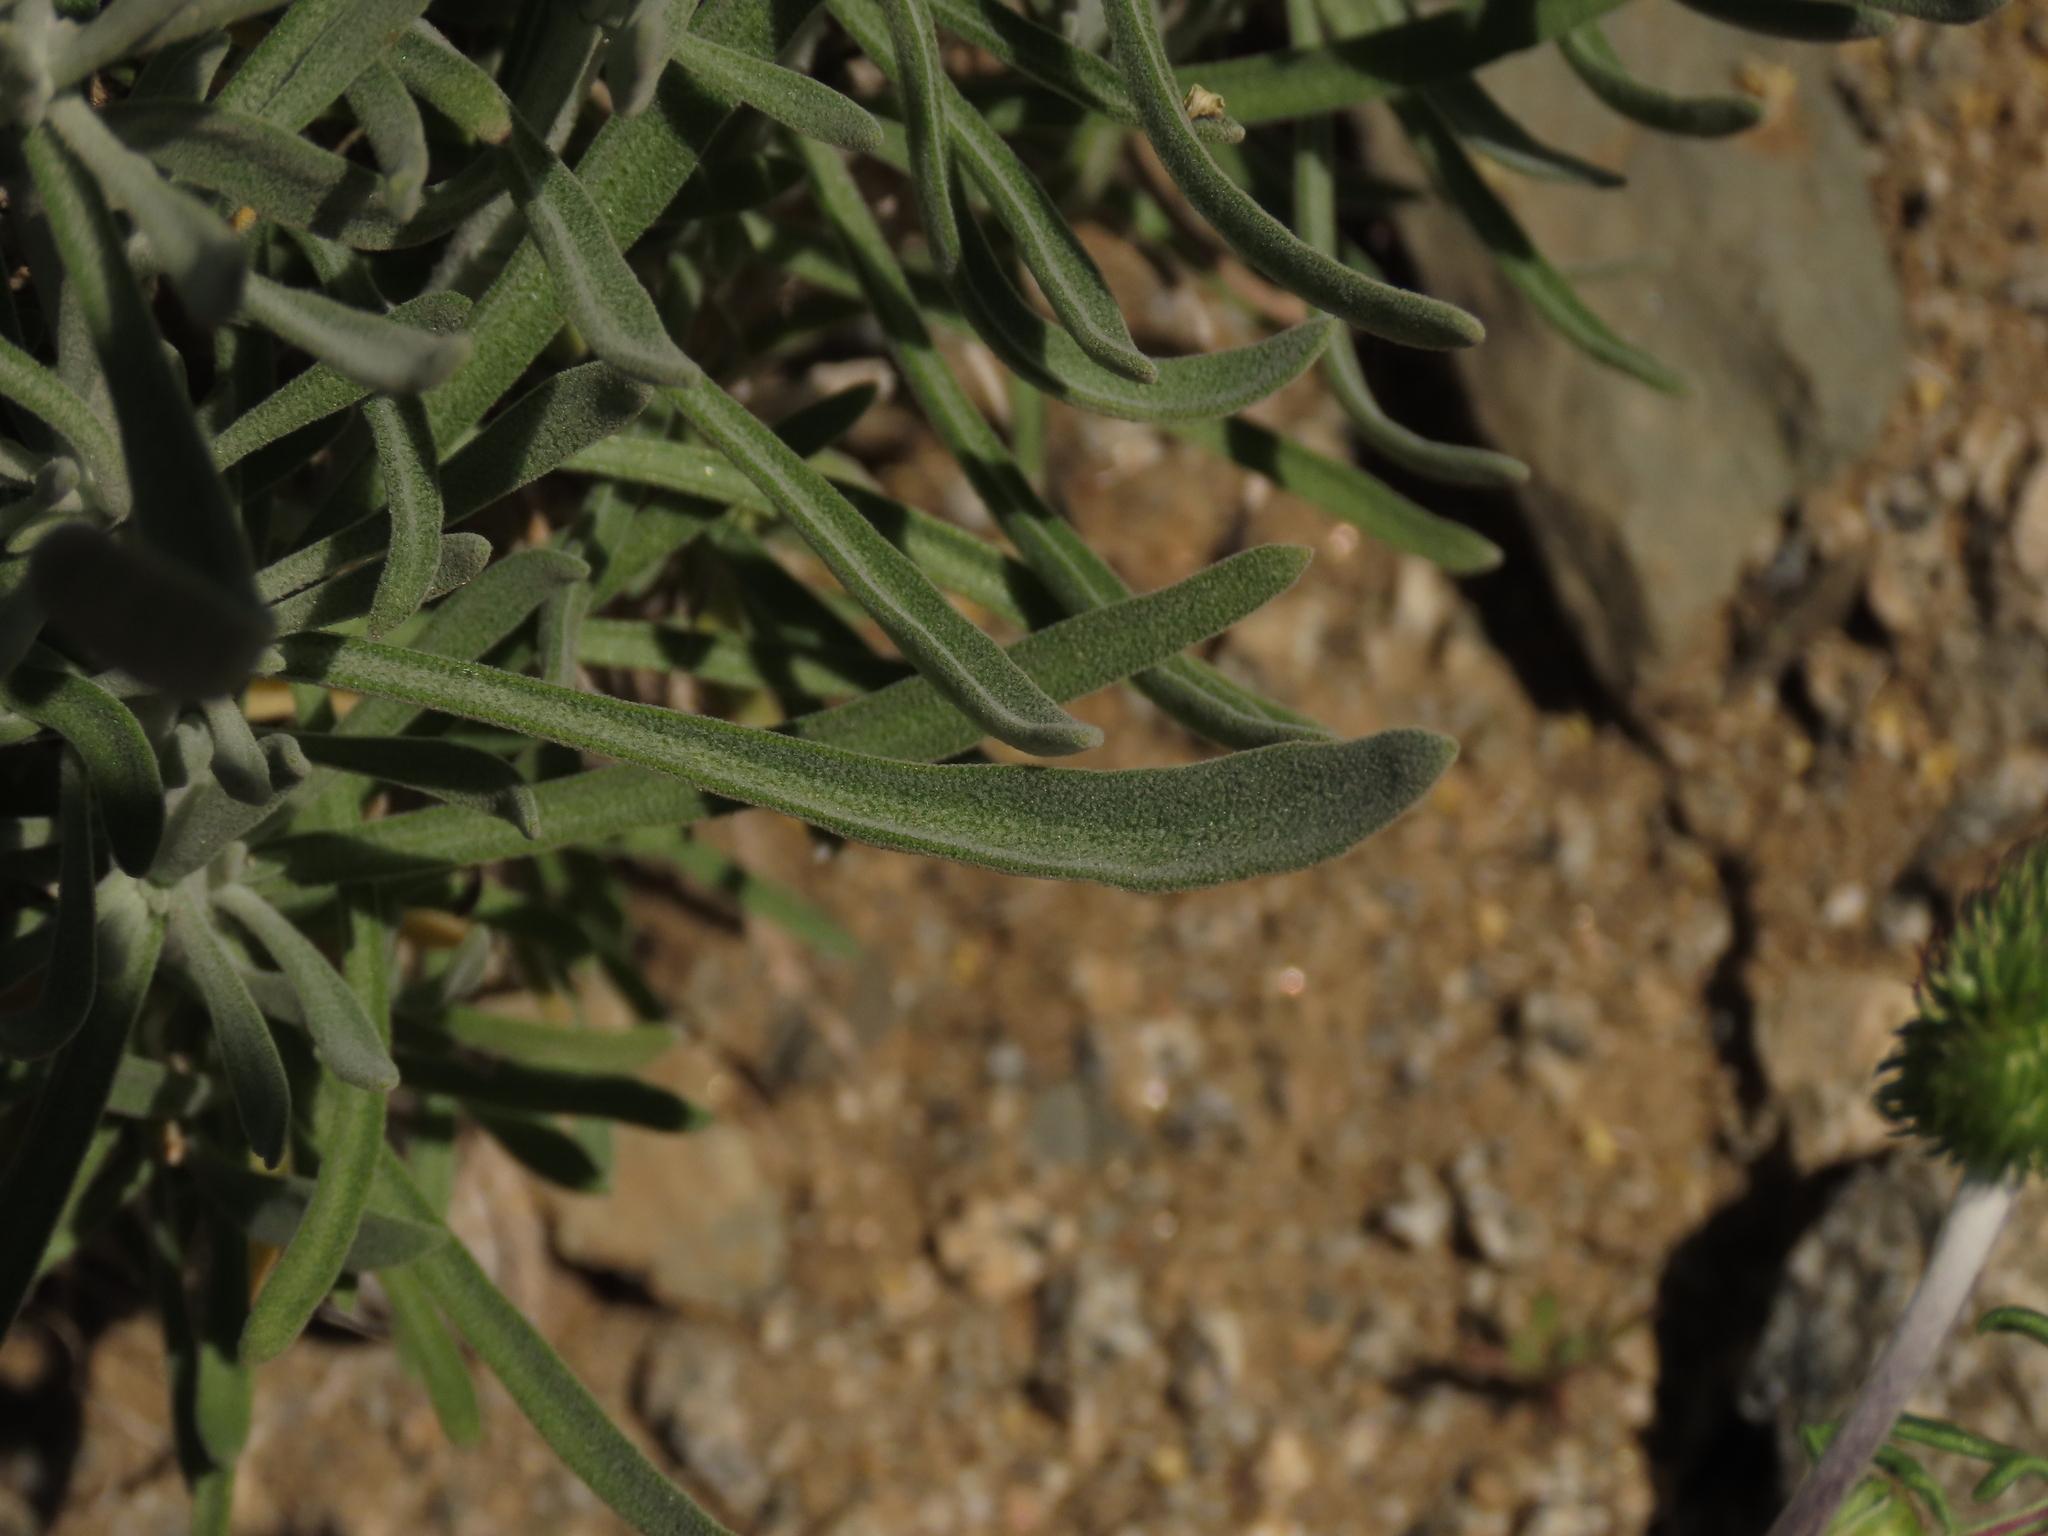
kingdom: Plantae
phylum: Tracheophyta
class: Magnoliopsida
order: Brassicales
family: Brassicaceae
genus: Mathewsia
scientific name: Mathewsia incana
